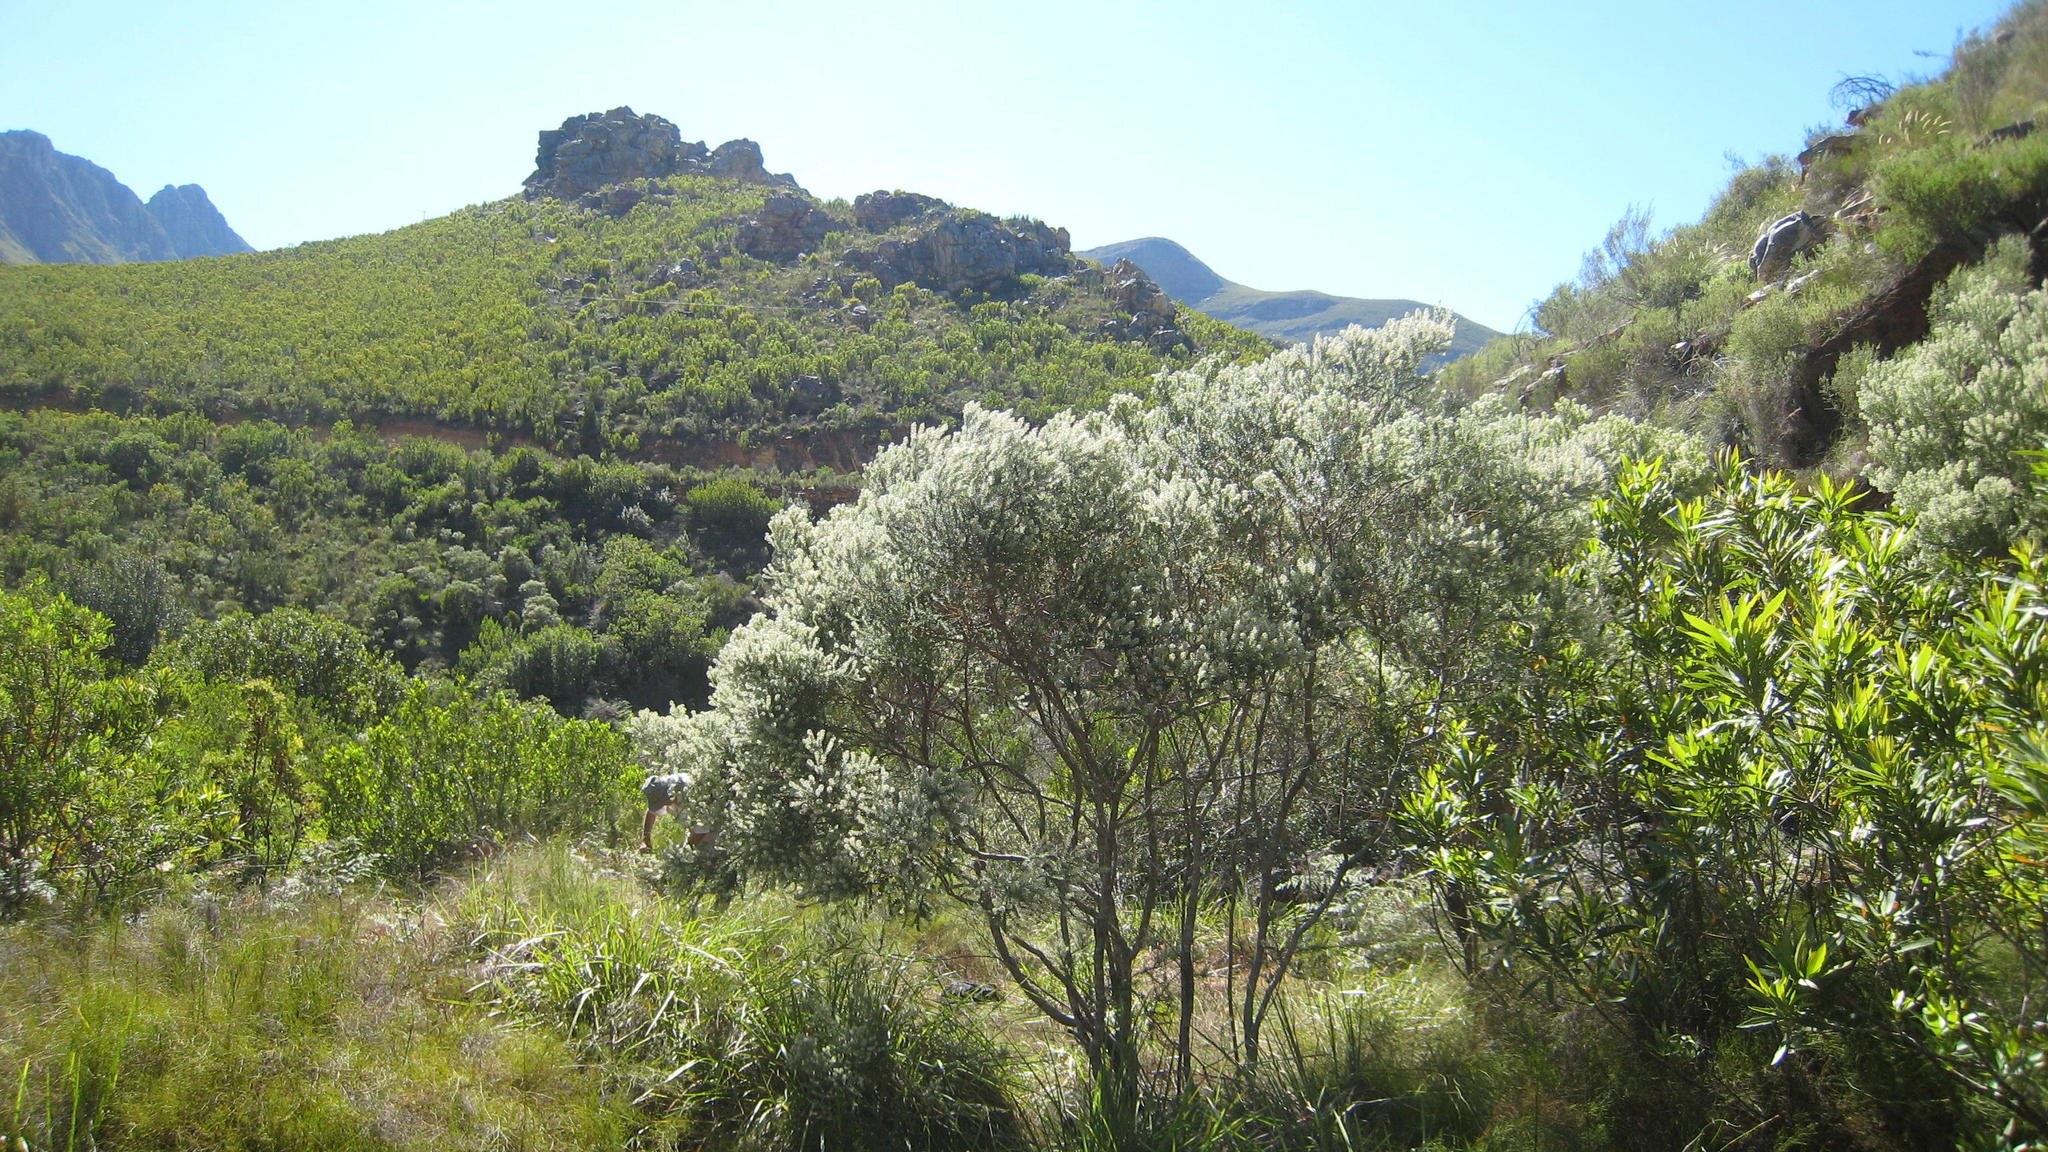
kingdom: Plantae
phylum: Tracheophyta
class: Magnoliopsida
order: Rosales
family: Rhamnaceae
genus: Phylica
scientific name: Phylica axillaris
